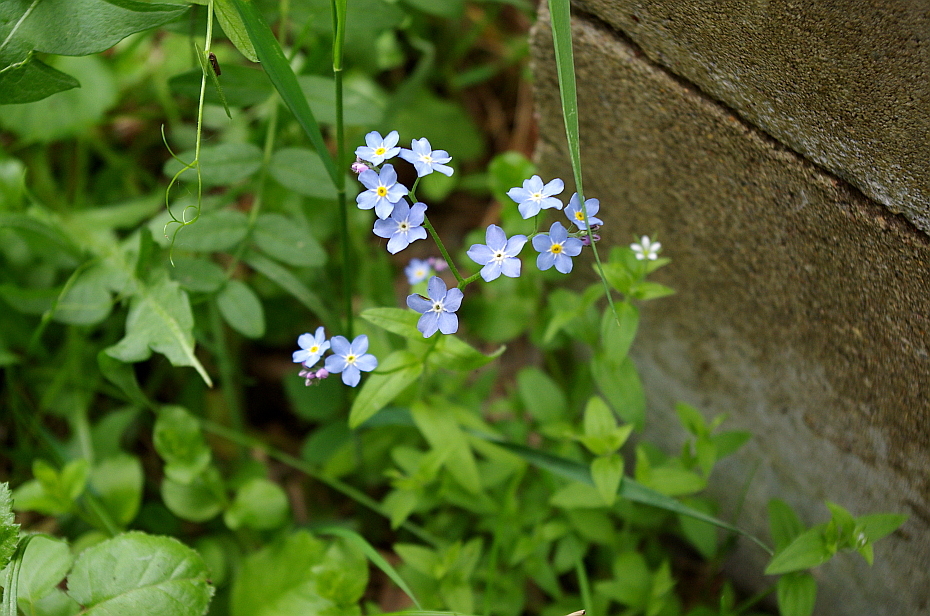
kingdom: Plantae
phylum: Tracheophyta
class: Magnoliopsida
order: Boraginales
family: Boraginaceae
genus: Myosotis
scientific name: Myosotis sylvatica
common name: Wood forget-me-not
